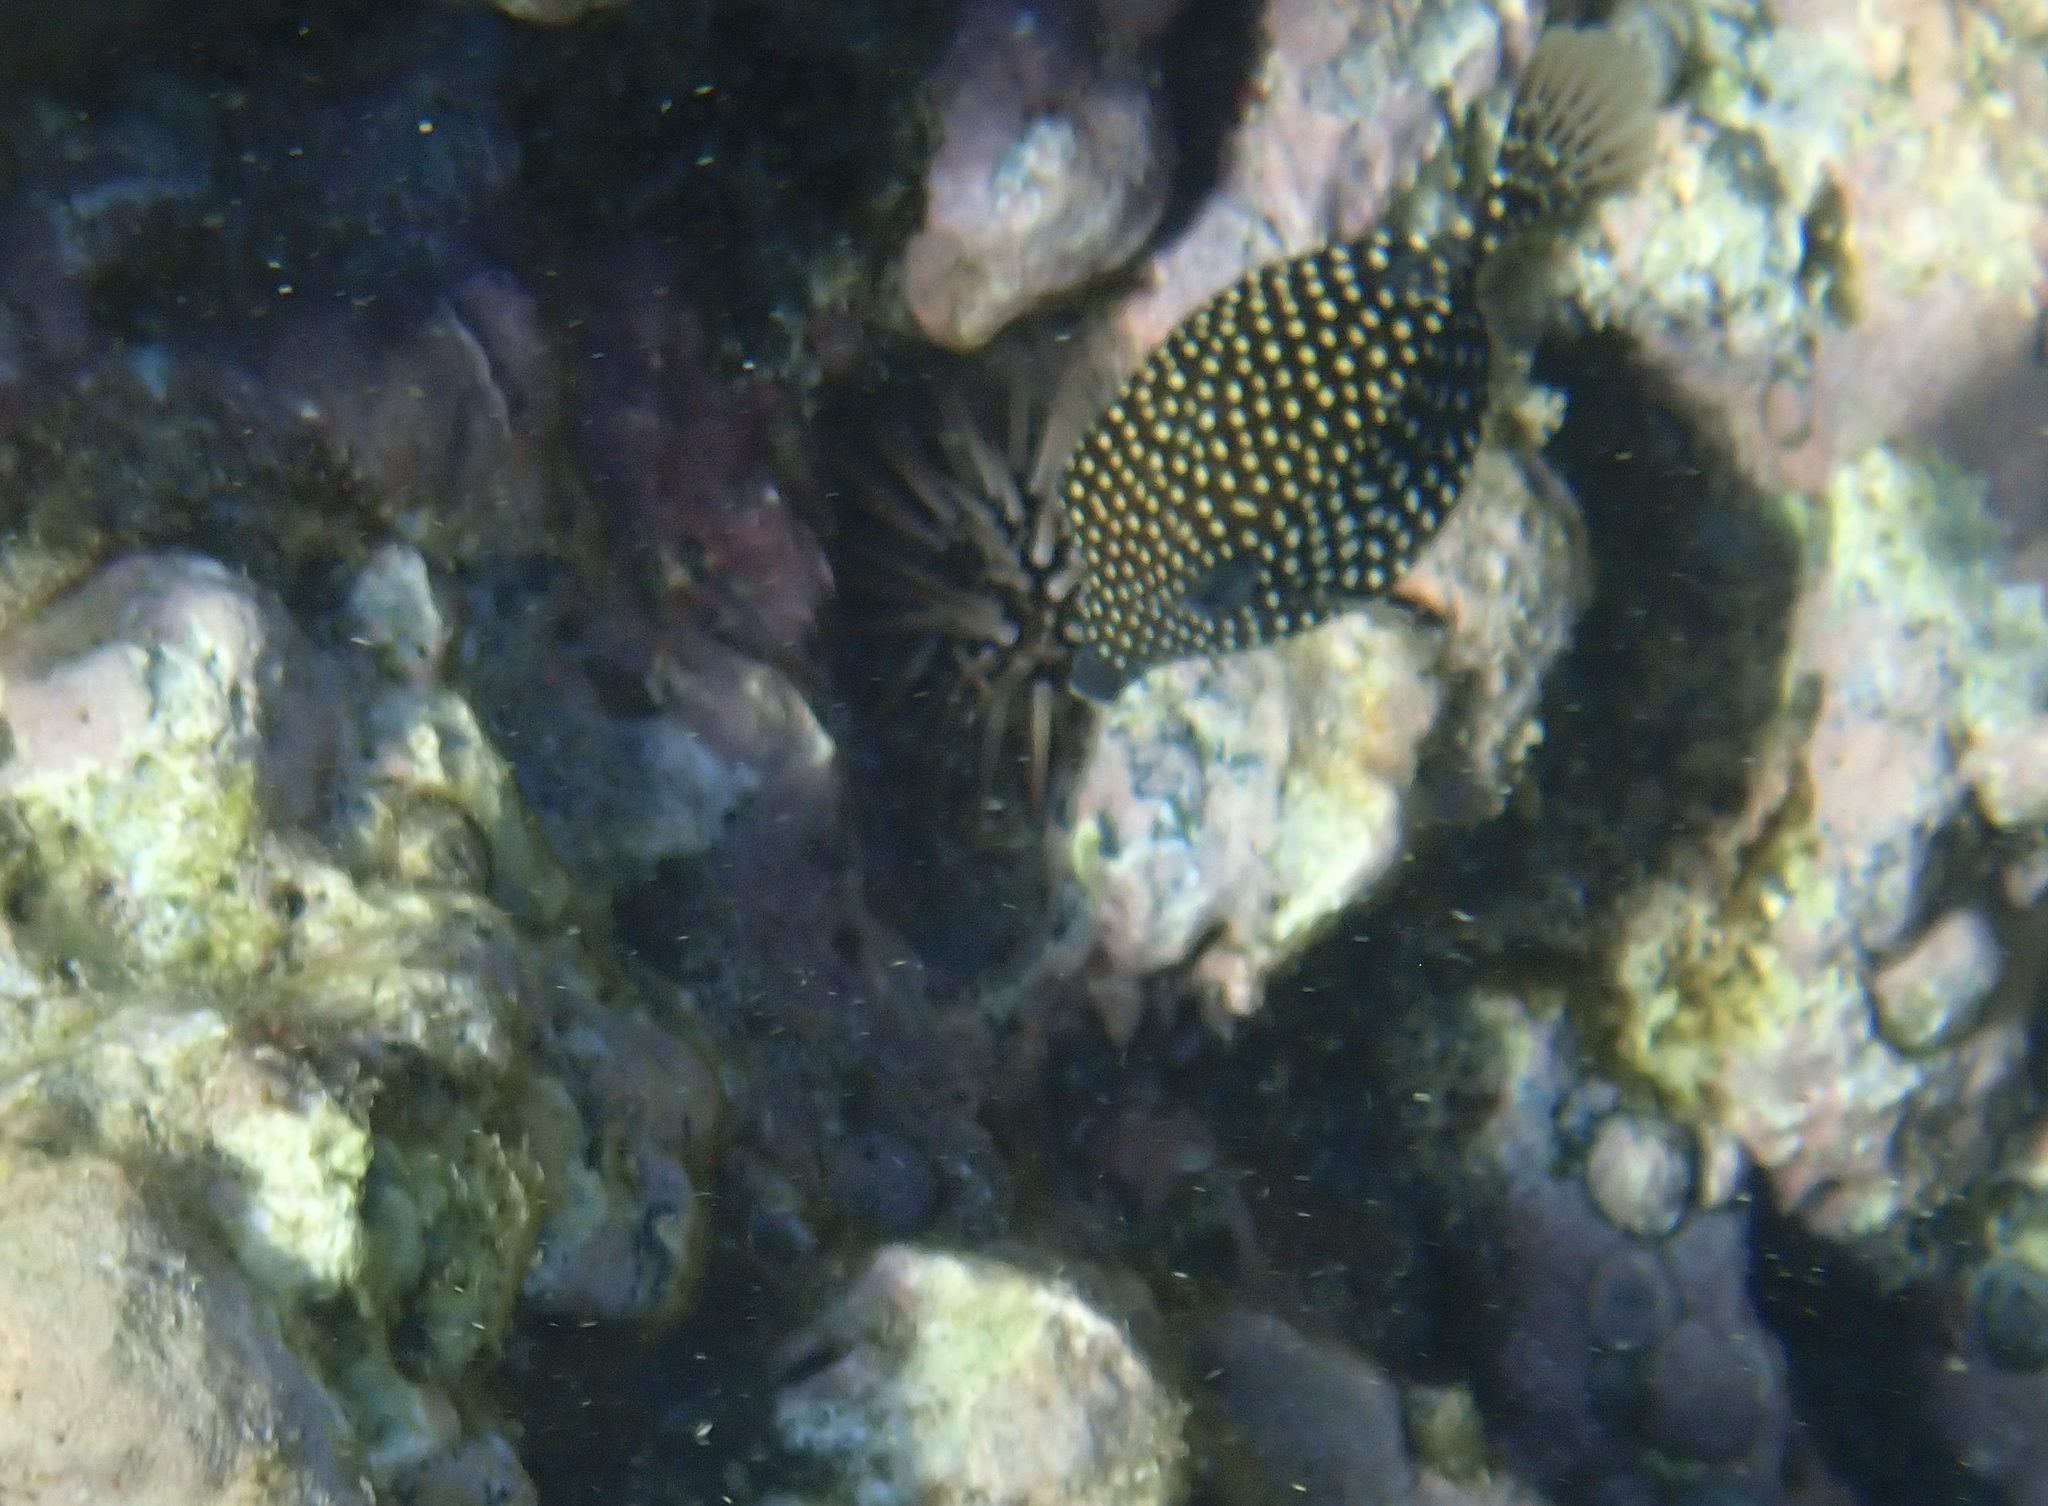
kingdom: Animalia
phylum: Chordata
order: Tetraodontiformes
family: Ostraciidae
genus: Ostracion
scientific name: Ostracion meleagris
